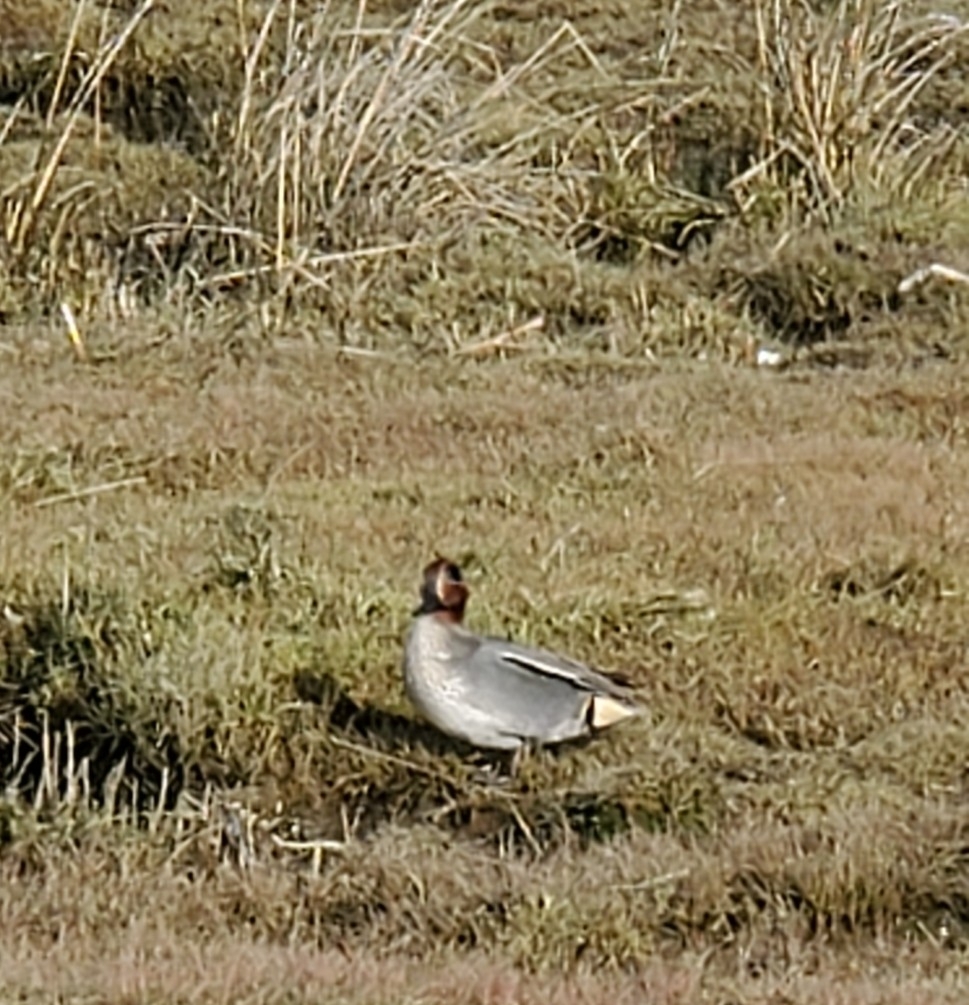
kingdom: Animalia
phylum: Chordata
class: Aves
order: Anseriformes
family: Anatidae
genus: Anas
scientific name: Anas crecca
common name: Eurasian teal
